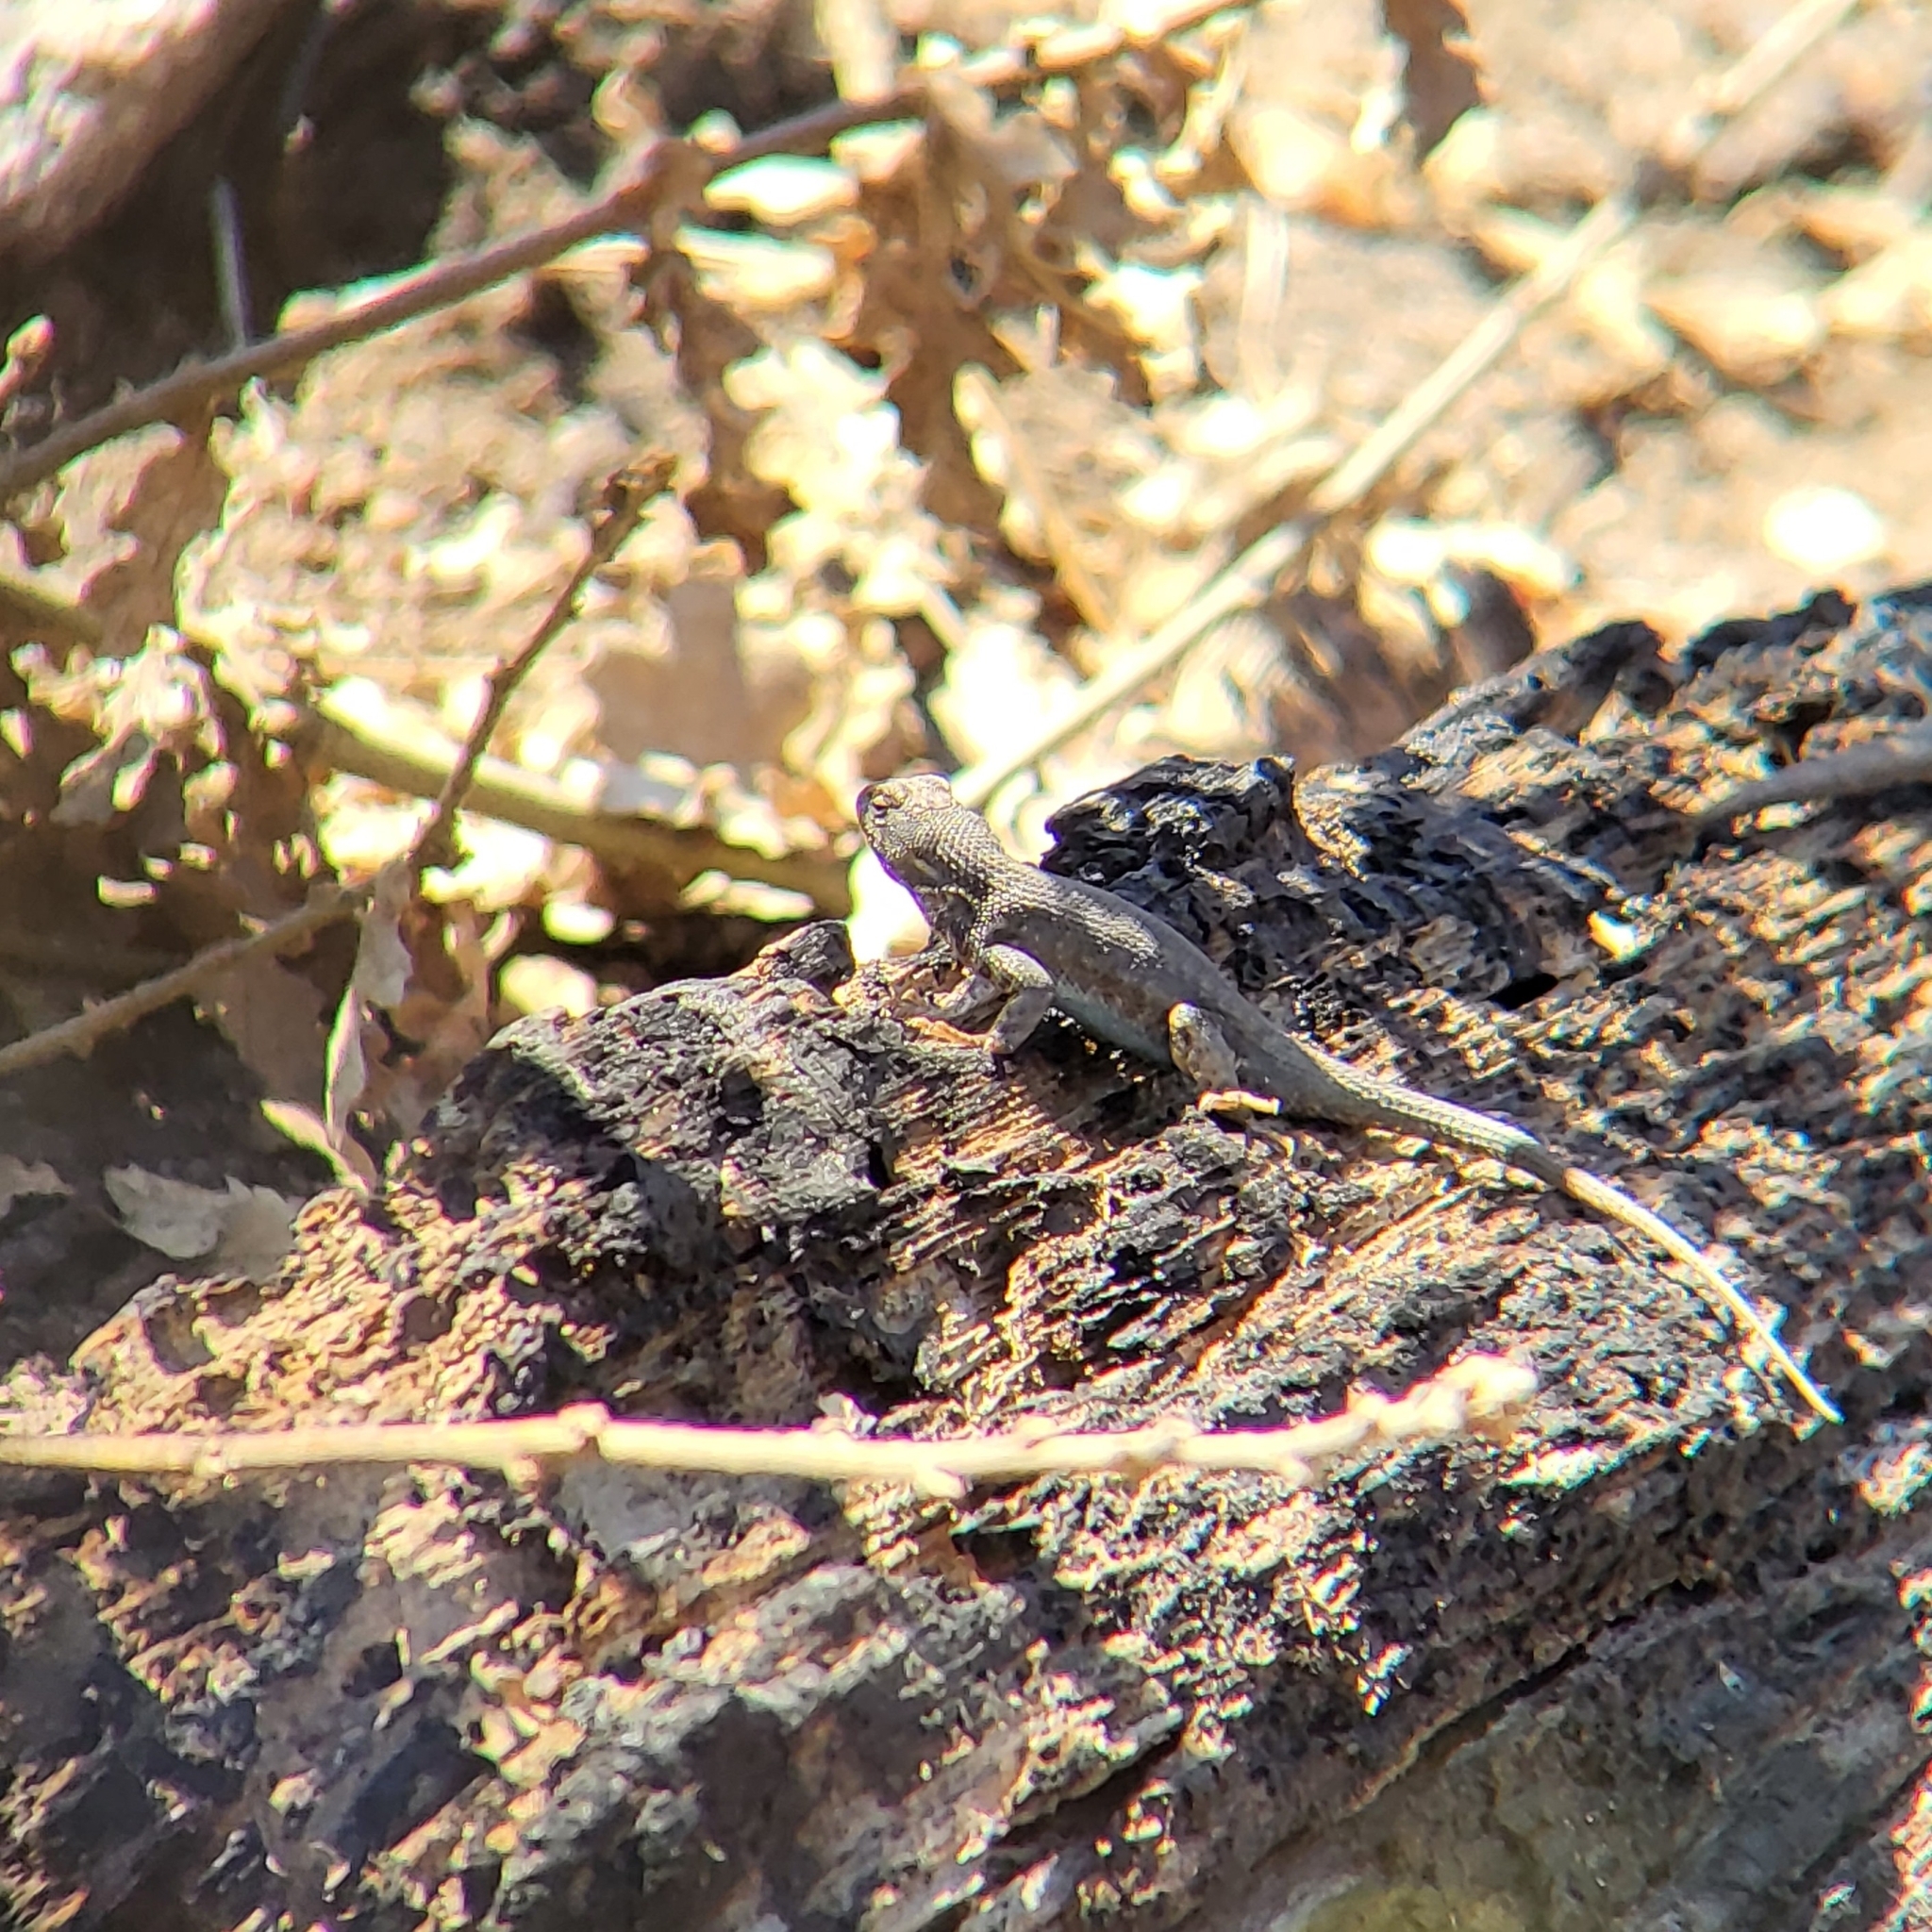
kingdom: Animalia
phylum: Chordata
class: Squamata
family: Phrynosomatidae
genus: Sceloporus
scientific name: Sceloporus graciosus
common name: Sagebrush lizard
